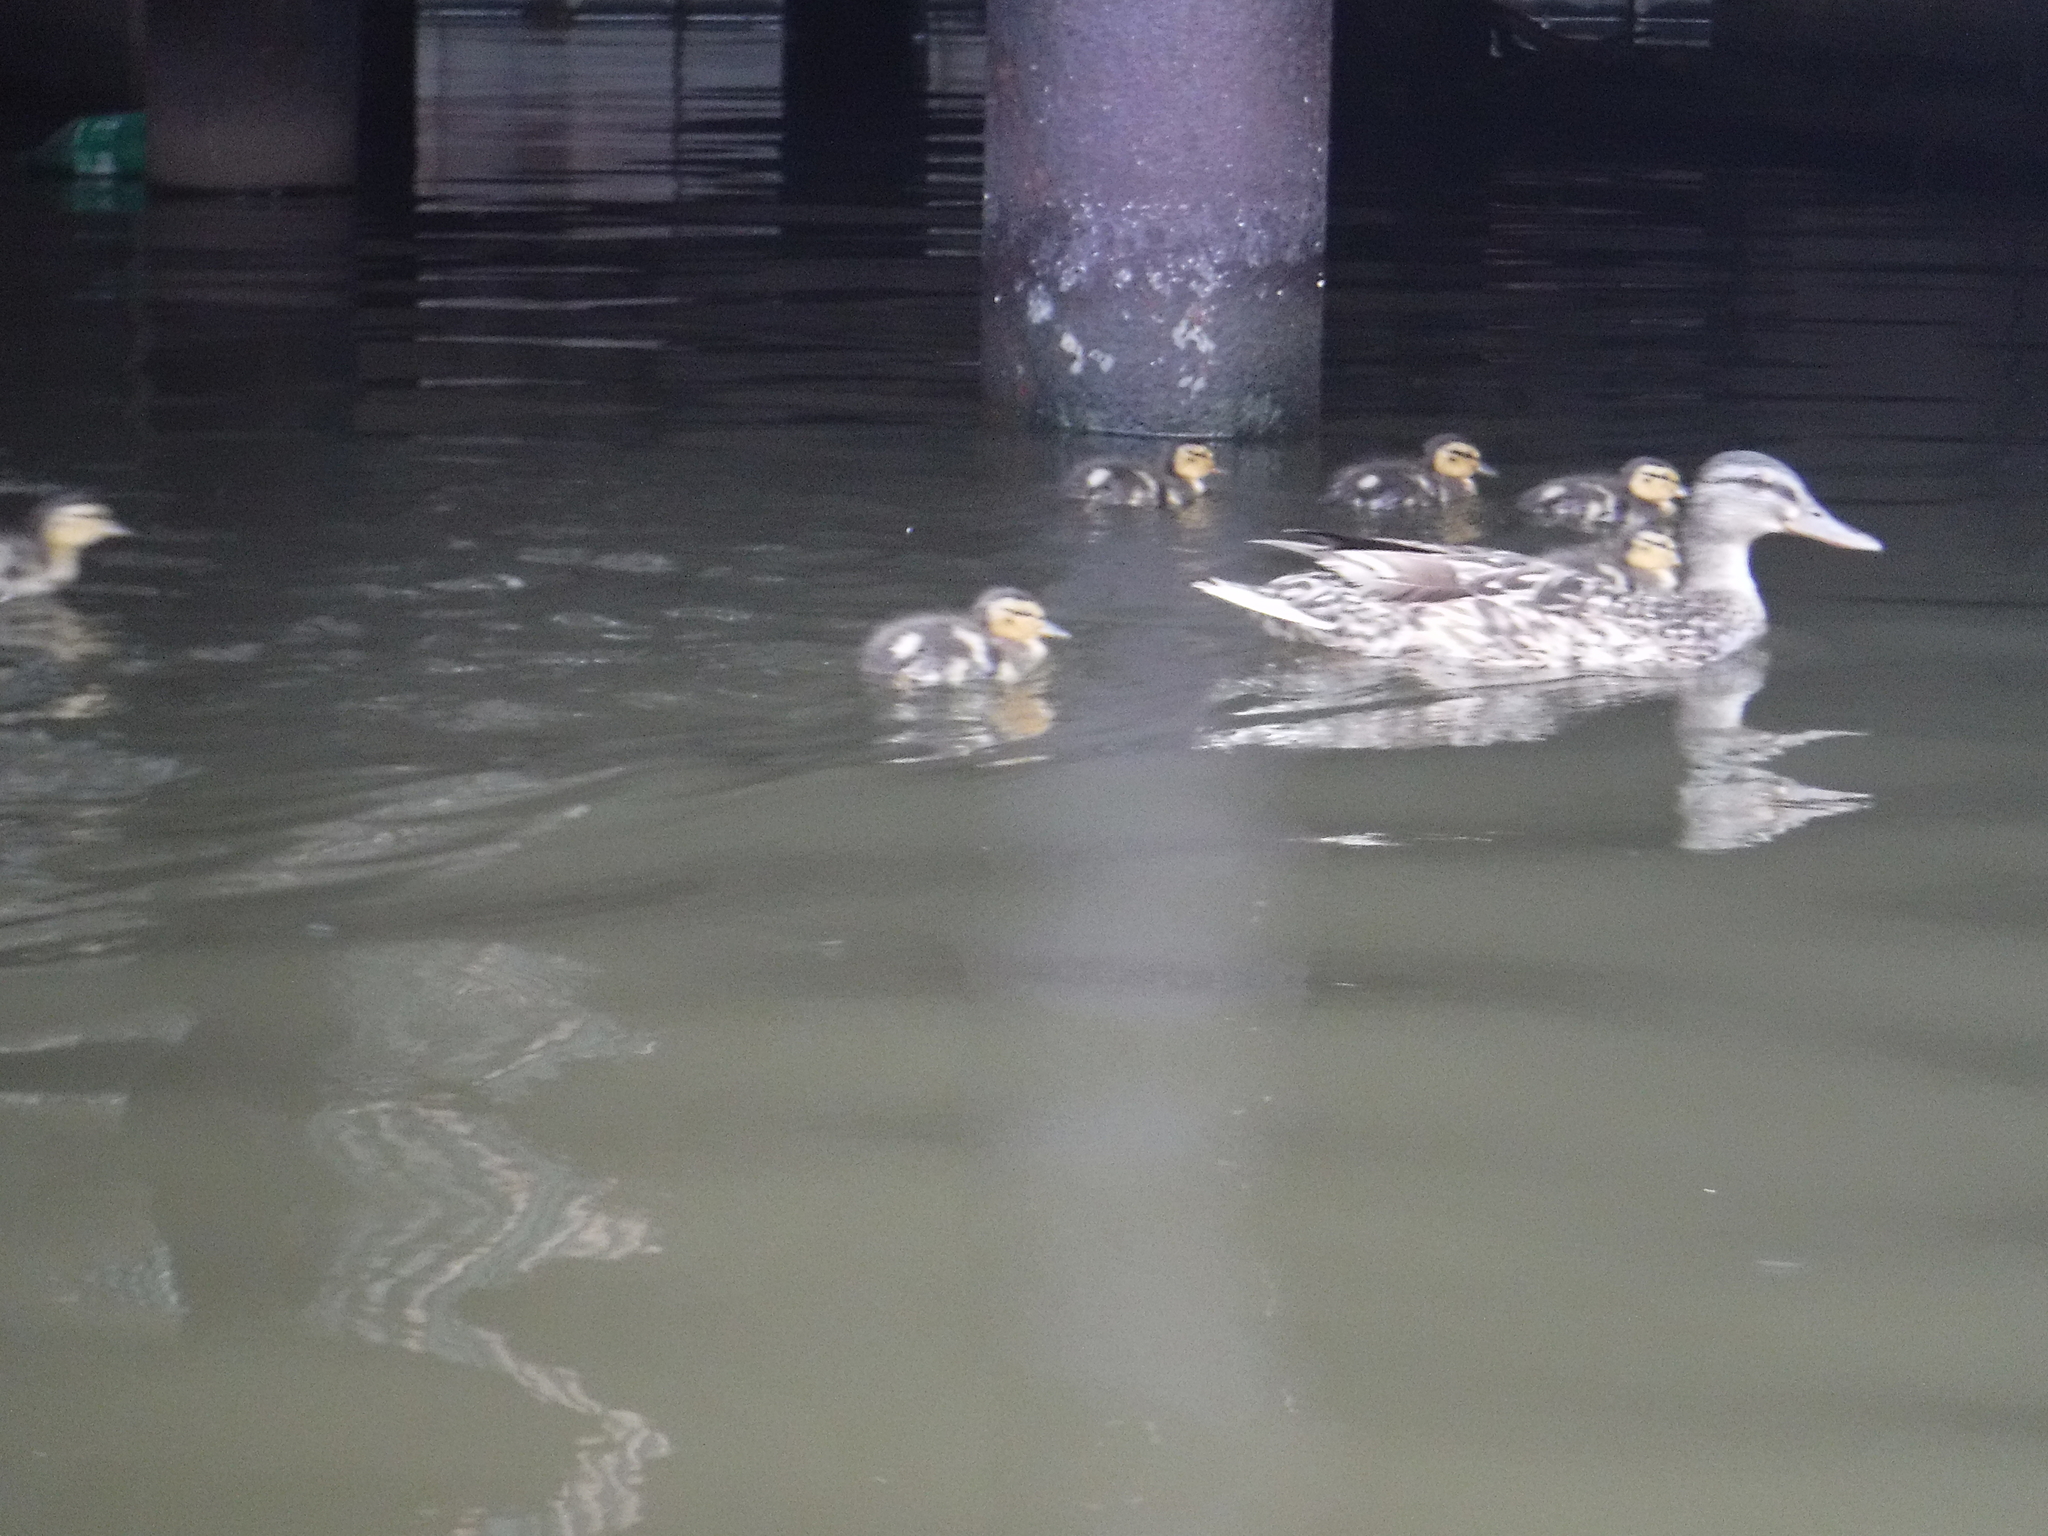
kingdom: Animalia
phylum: Chordata
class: Aves
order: Anseriformes
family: Anatidae
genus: Anas
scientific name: Anas platyrhynchos
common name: Mallard
